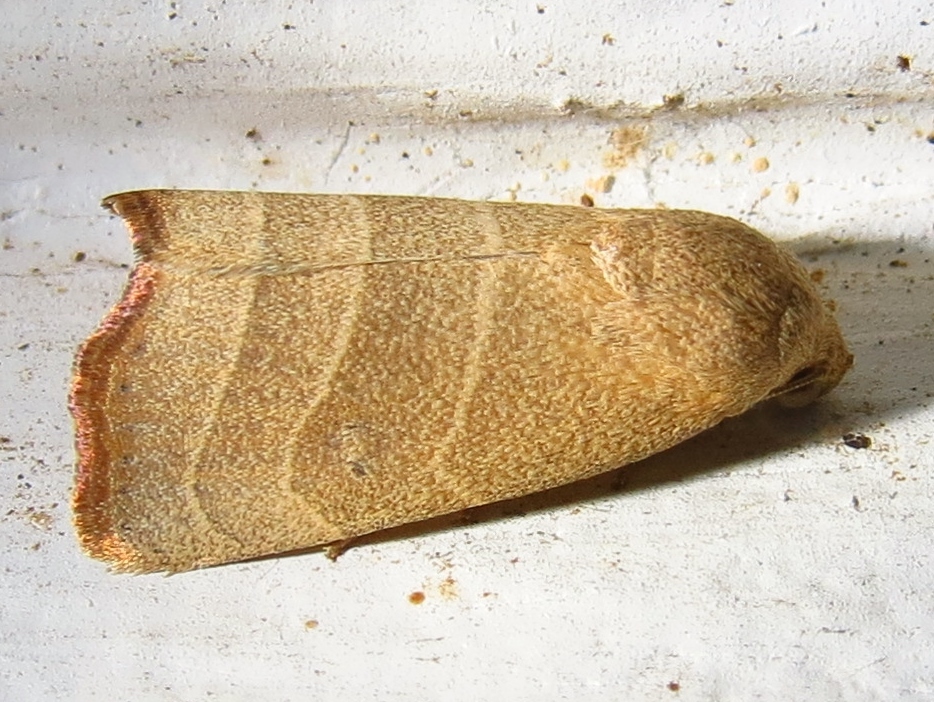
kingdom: Animalia
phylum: Arthropoda
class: Insecta
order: Lepidoptera
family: Noctuidae
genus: Bagisara
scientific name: Bagisara repanda
